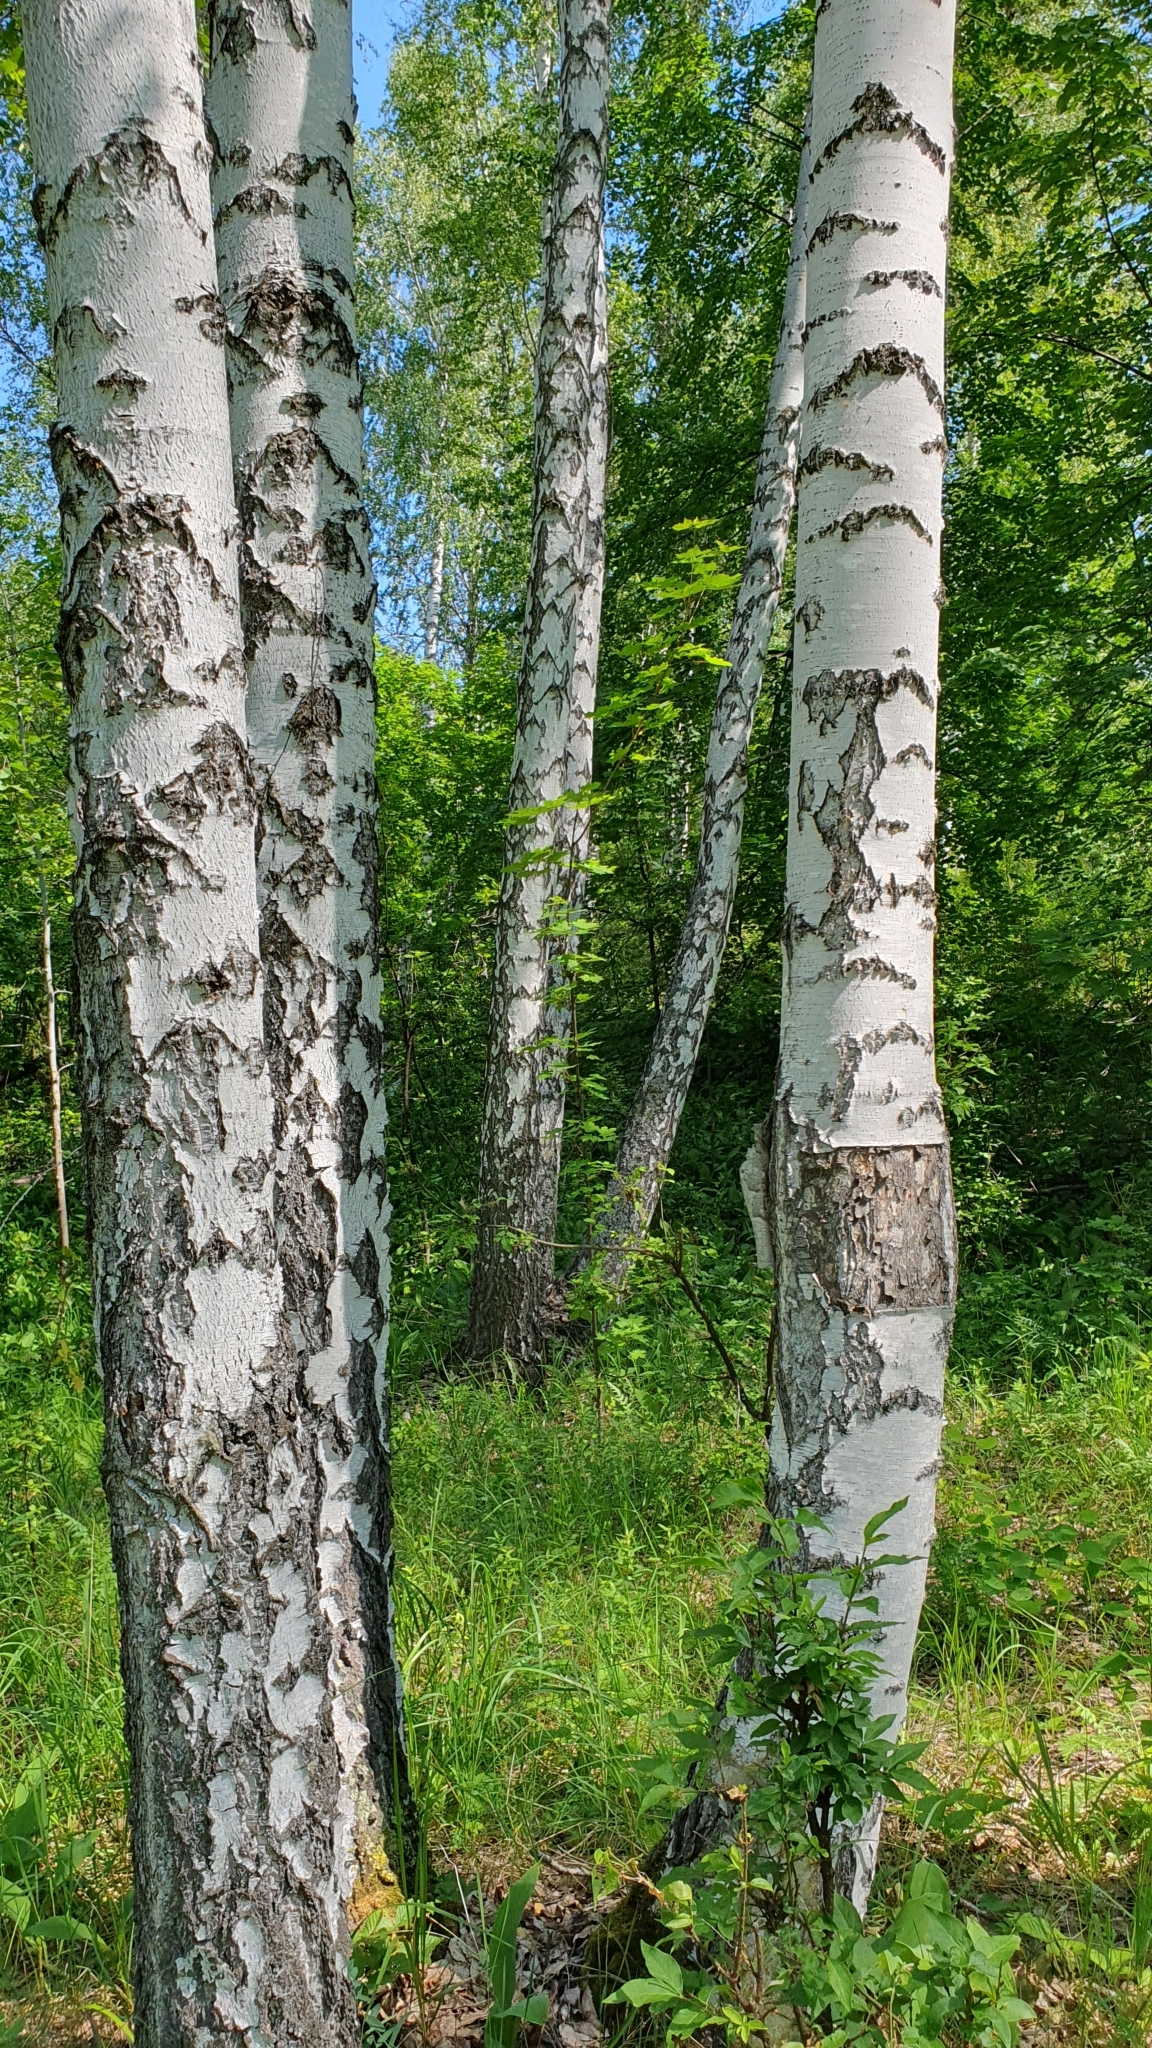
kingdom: Plantae
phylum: Tracheophyta
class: Magnoliopsida
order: Fagales
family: Betulaceae
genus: Betula
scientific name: Betula pendula
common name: Silver birch
